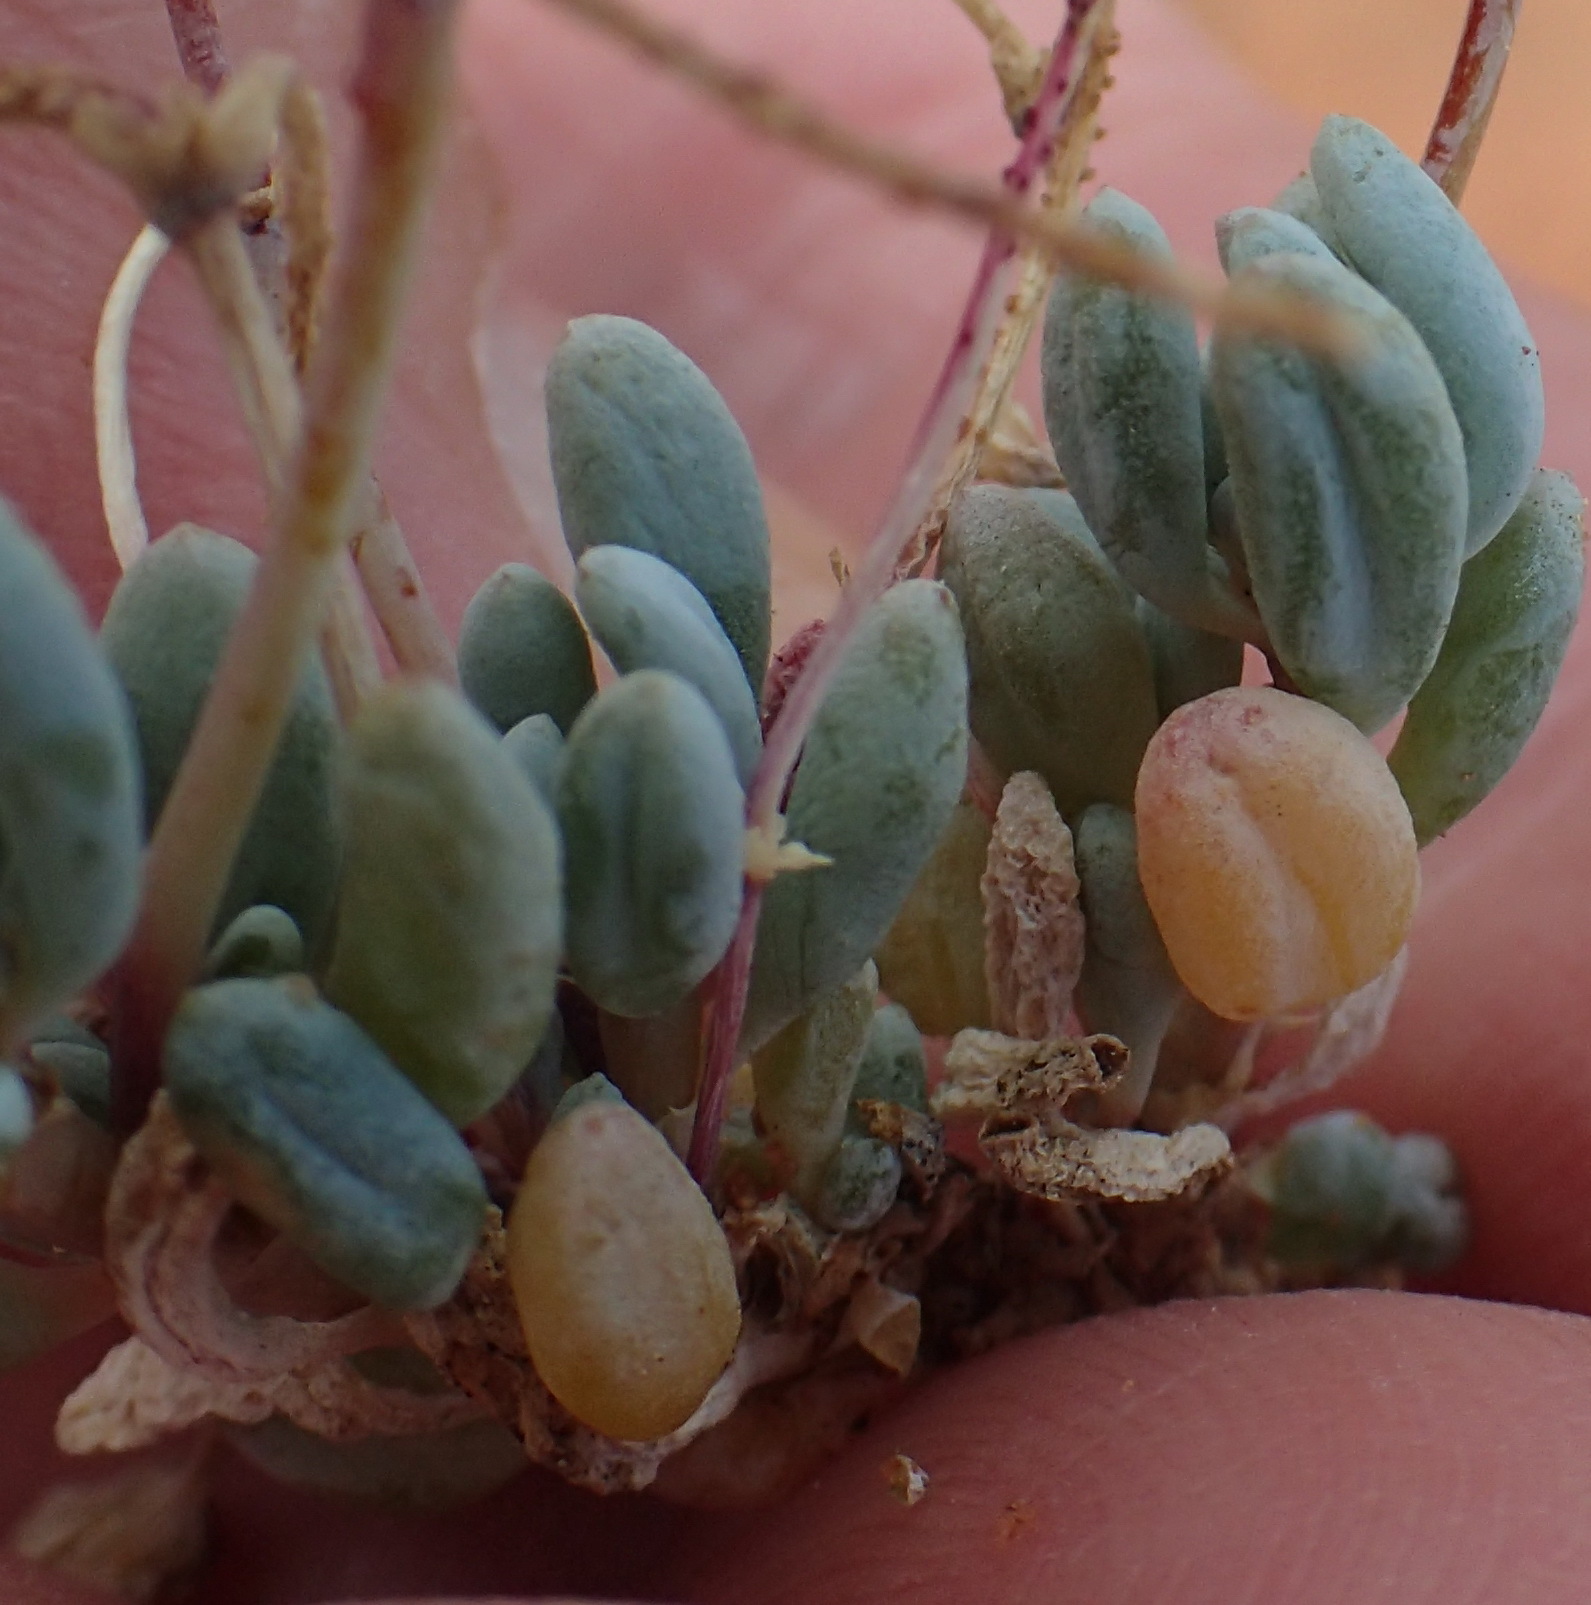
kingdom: Plantae
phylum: Tracheophyta
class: Magnoliopsida
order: Caryophyllales
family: Kewaceae
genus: Kewa
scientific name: Kewa angrae-pequenae
